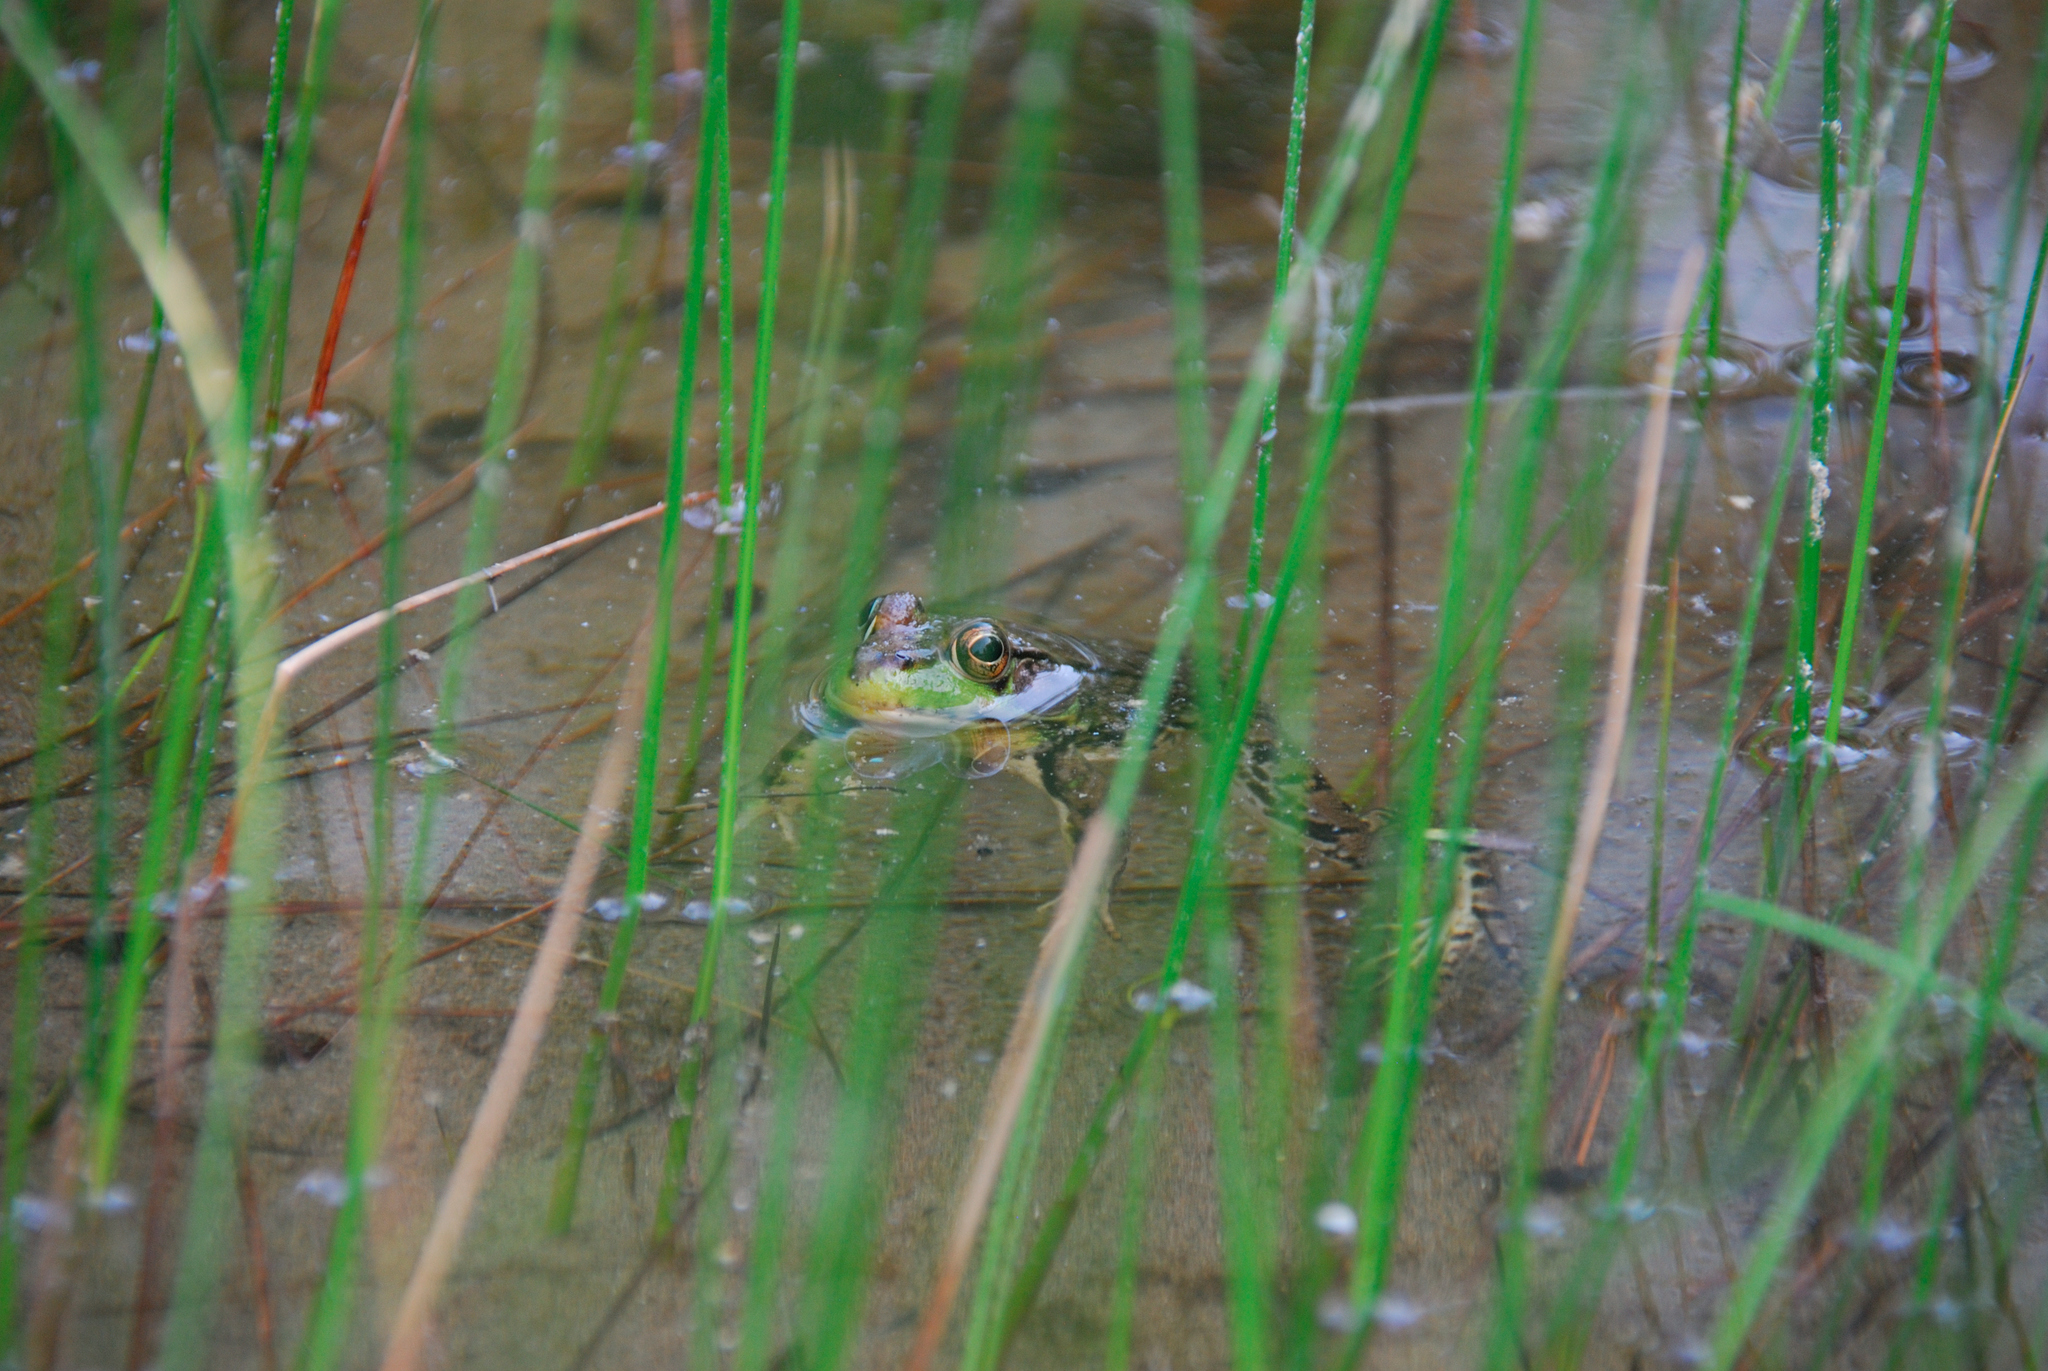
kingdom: Animalia
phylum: Chordata
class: Amphibia
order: Anura
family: Ranidae
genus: Lithobates
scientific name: Lithobates clamitans
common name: Green frog
